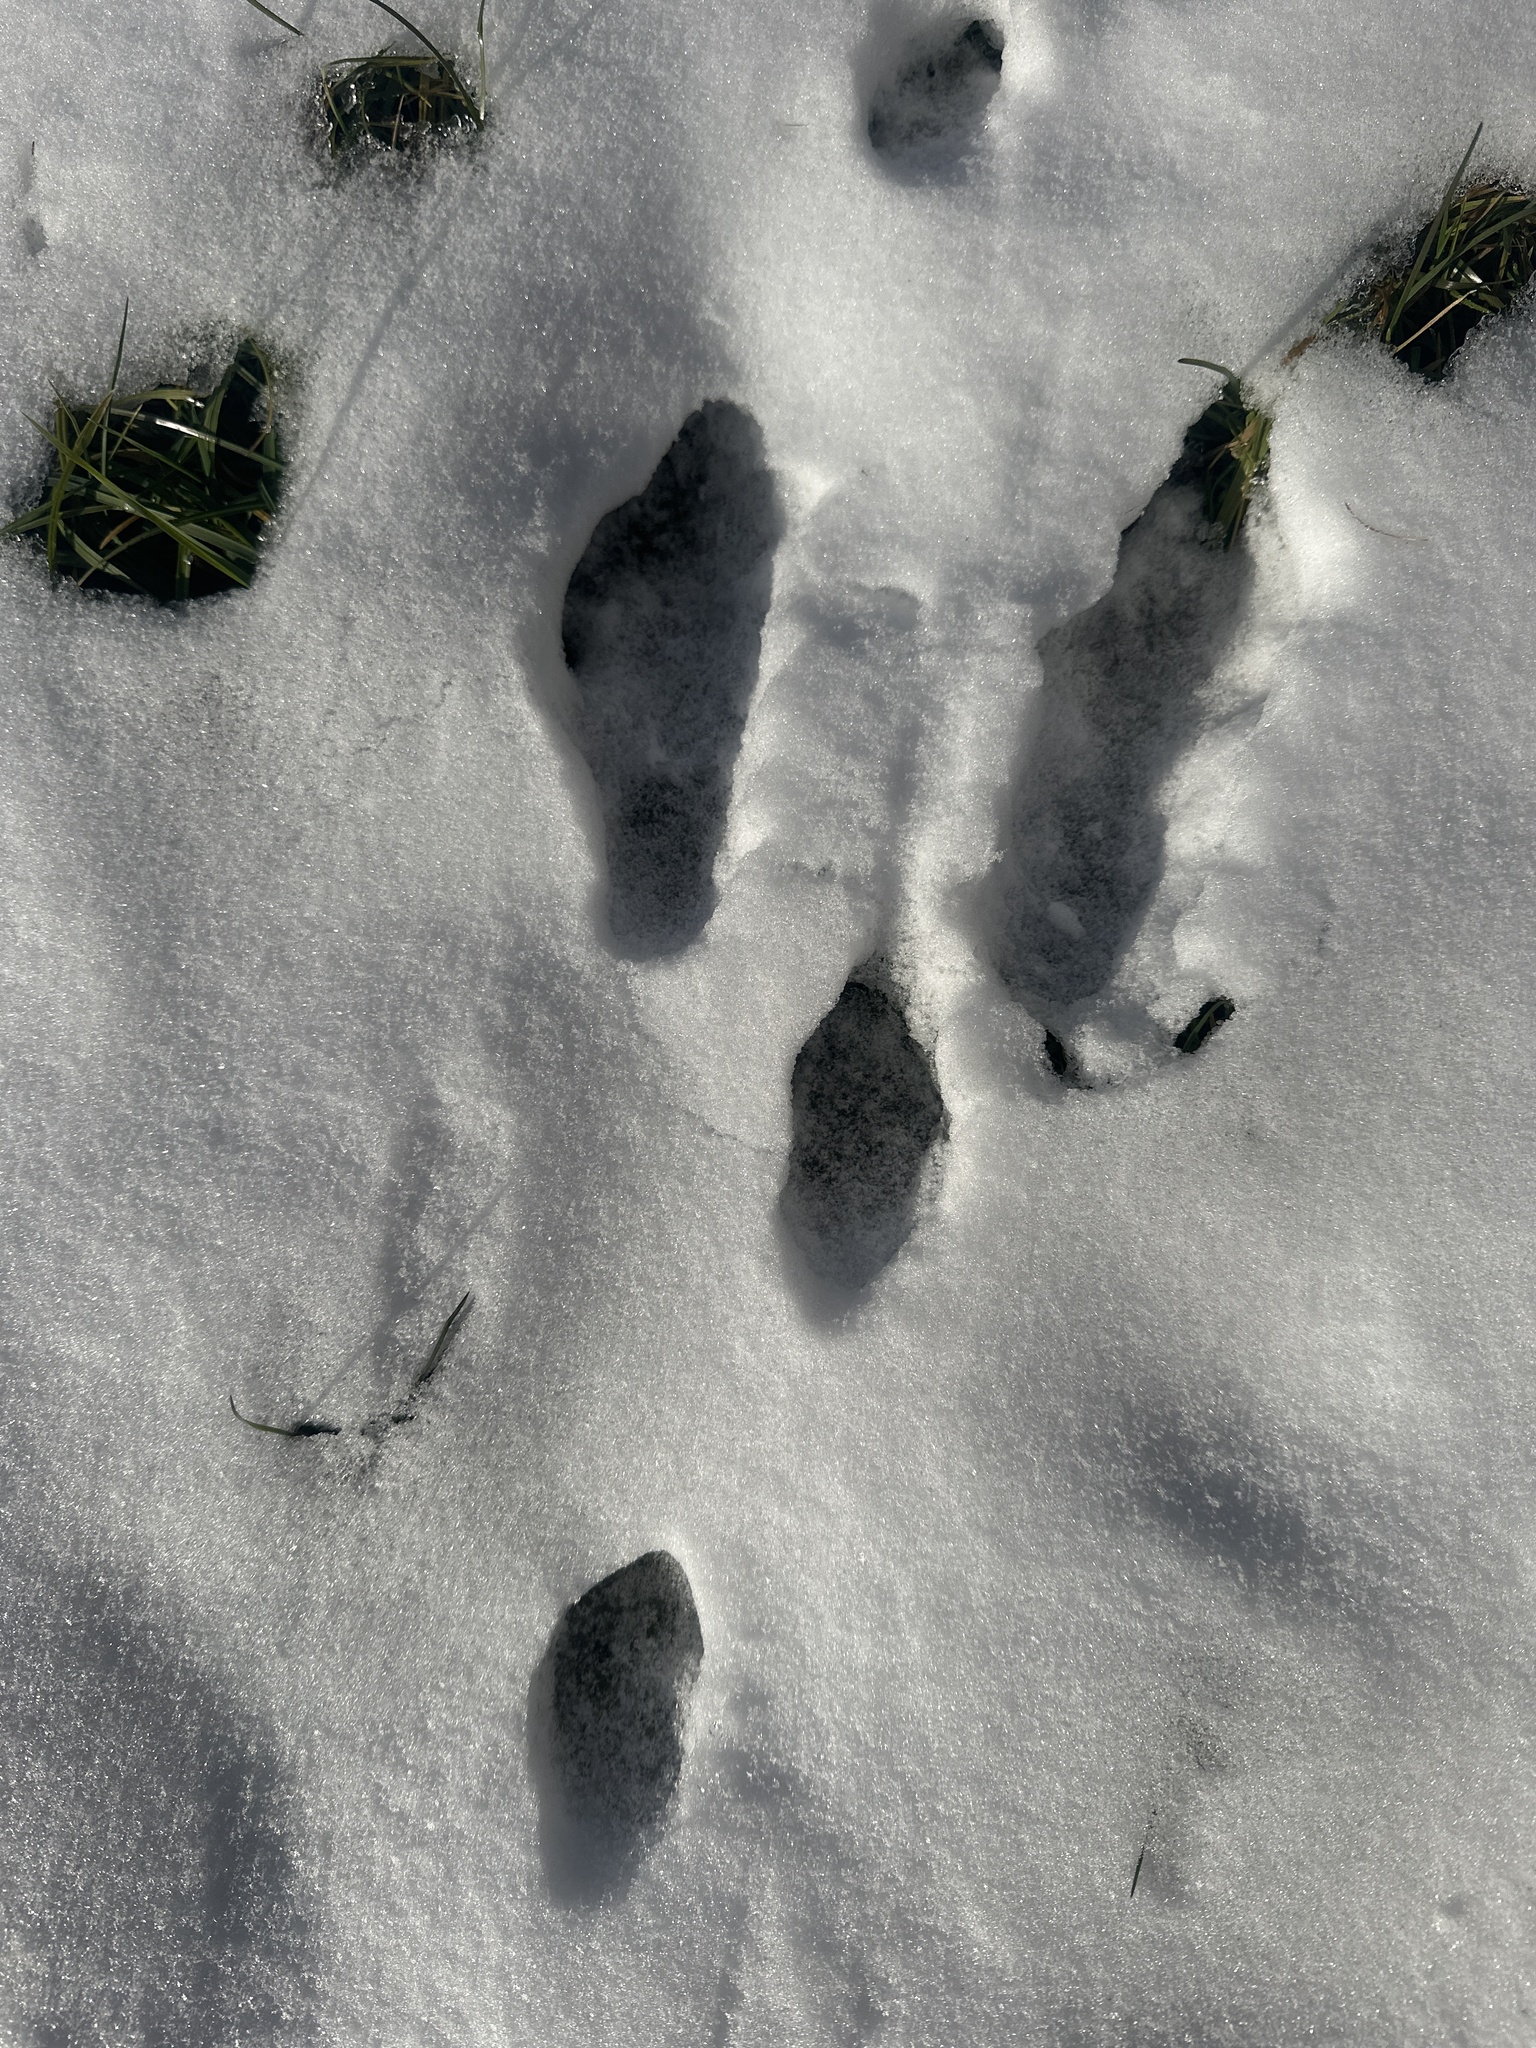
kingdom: Animalia
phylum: Chordata
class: Mammalia
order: Lagomorpha
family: Leporidae
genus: Lepus
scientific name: Lepus europaeus
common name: European hare
